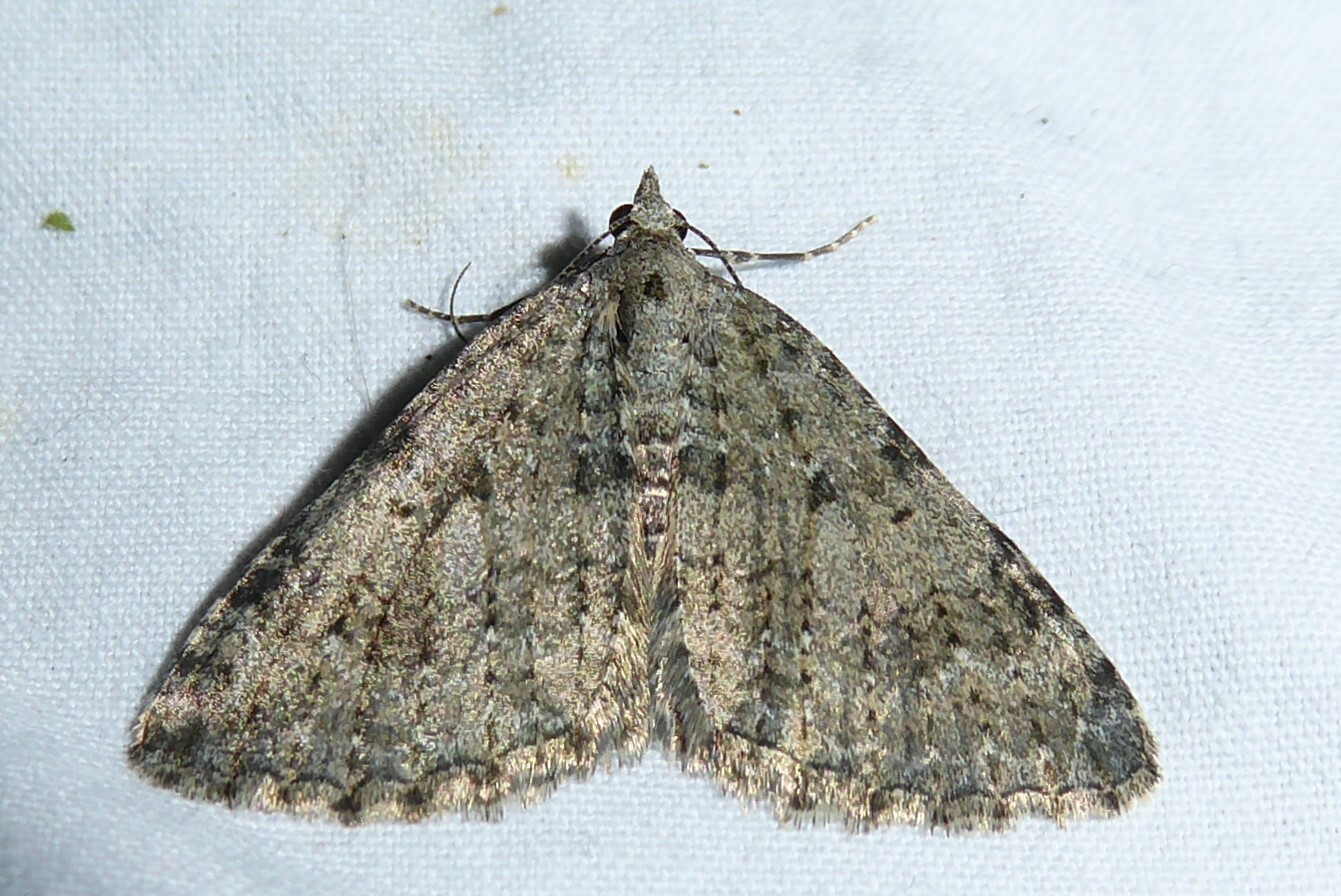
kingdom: Animalia
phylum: Arthropoda
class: Insecta
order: Lepidoptera
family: Geometridae
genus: Helastia
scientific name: Helastia corcularia
